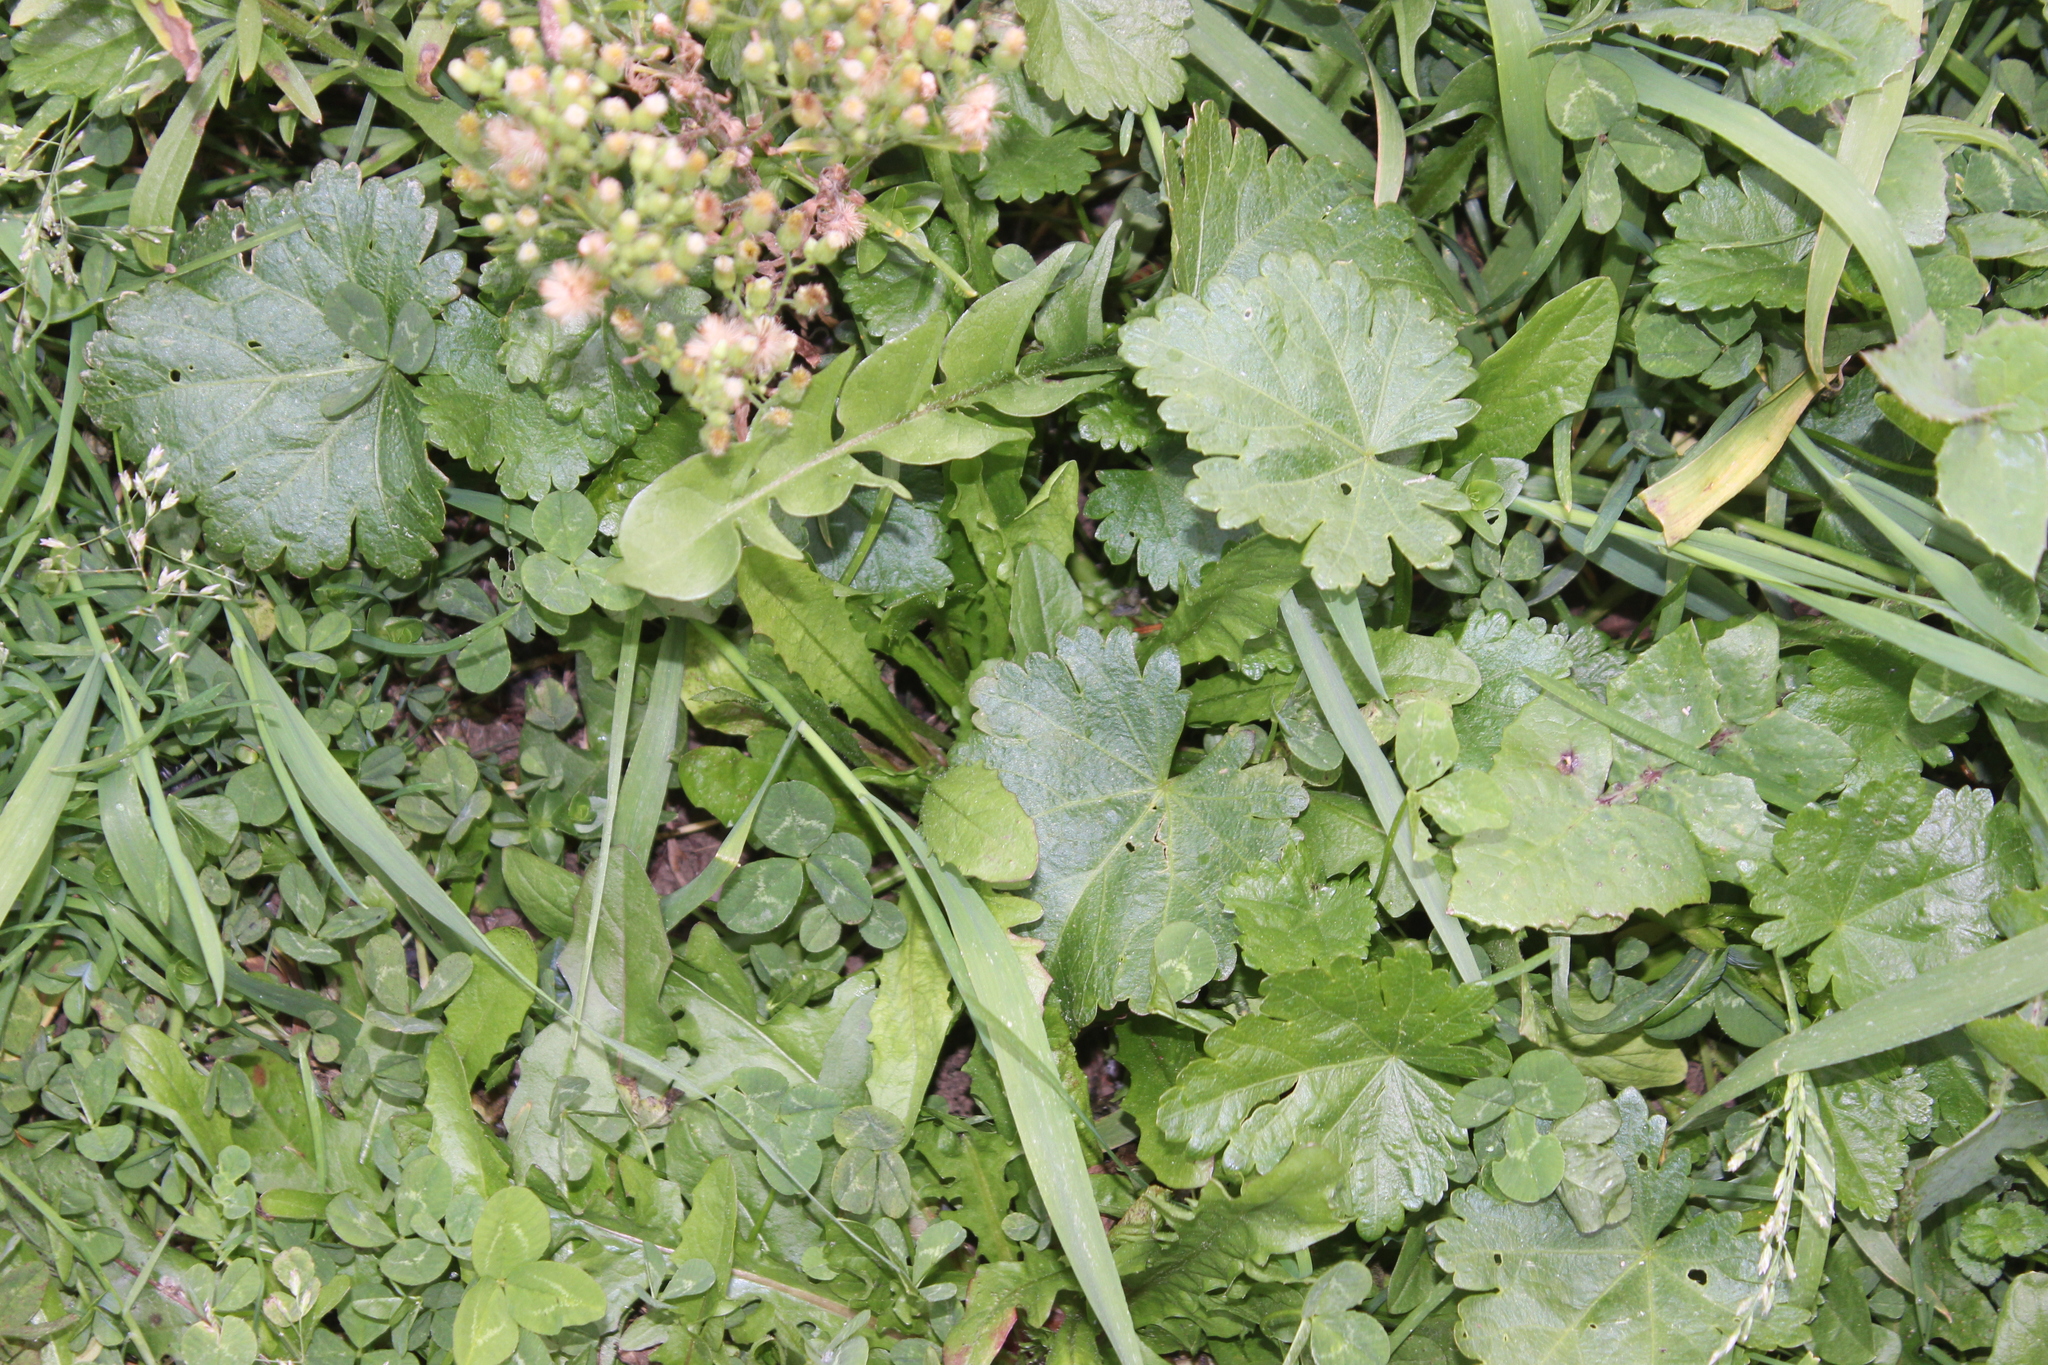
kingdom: Plantae
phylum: Tracheophyta
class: Magnoliopsida
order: Malvales
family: Malvaceae
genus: Modiola
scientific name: Modiola caroliniana
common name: Carolina bristlemallow
